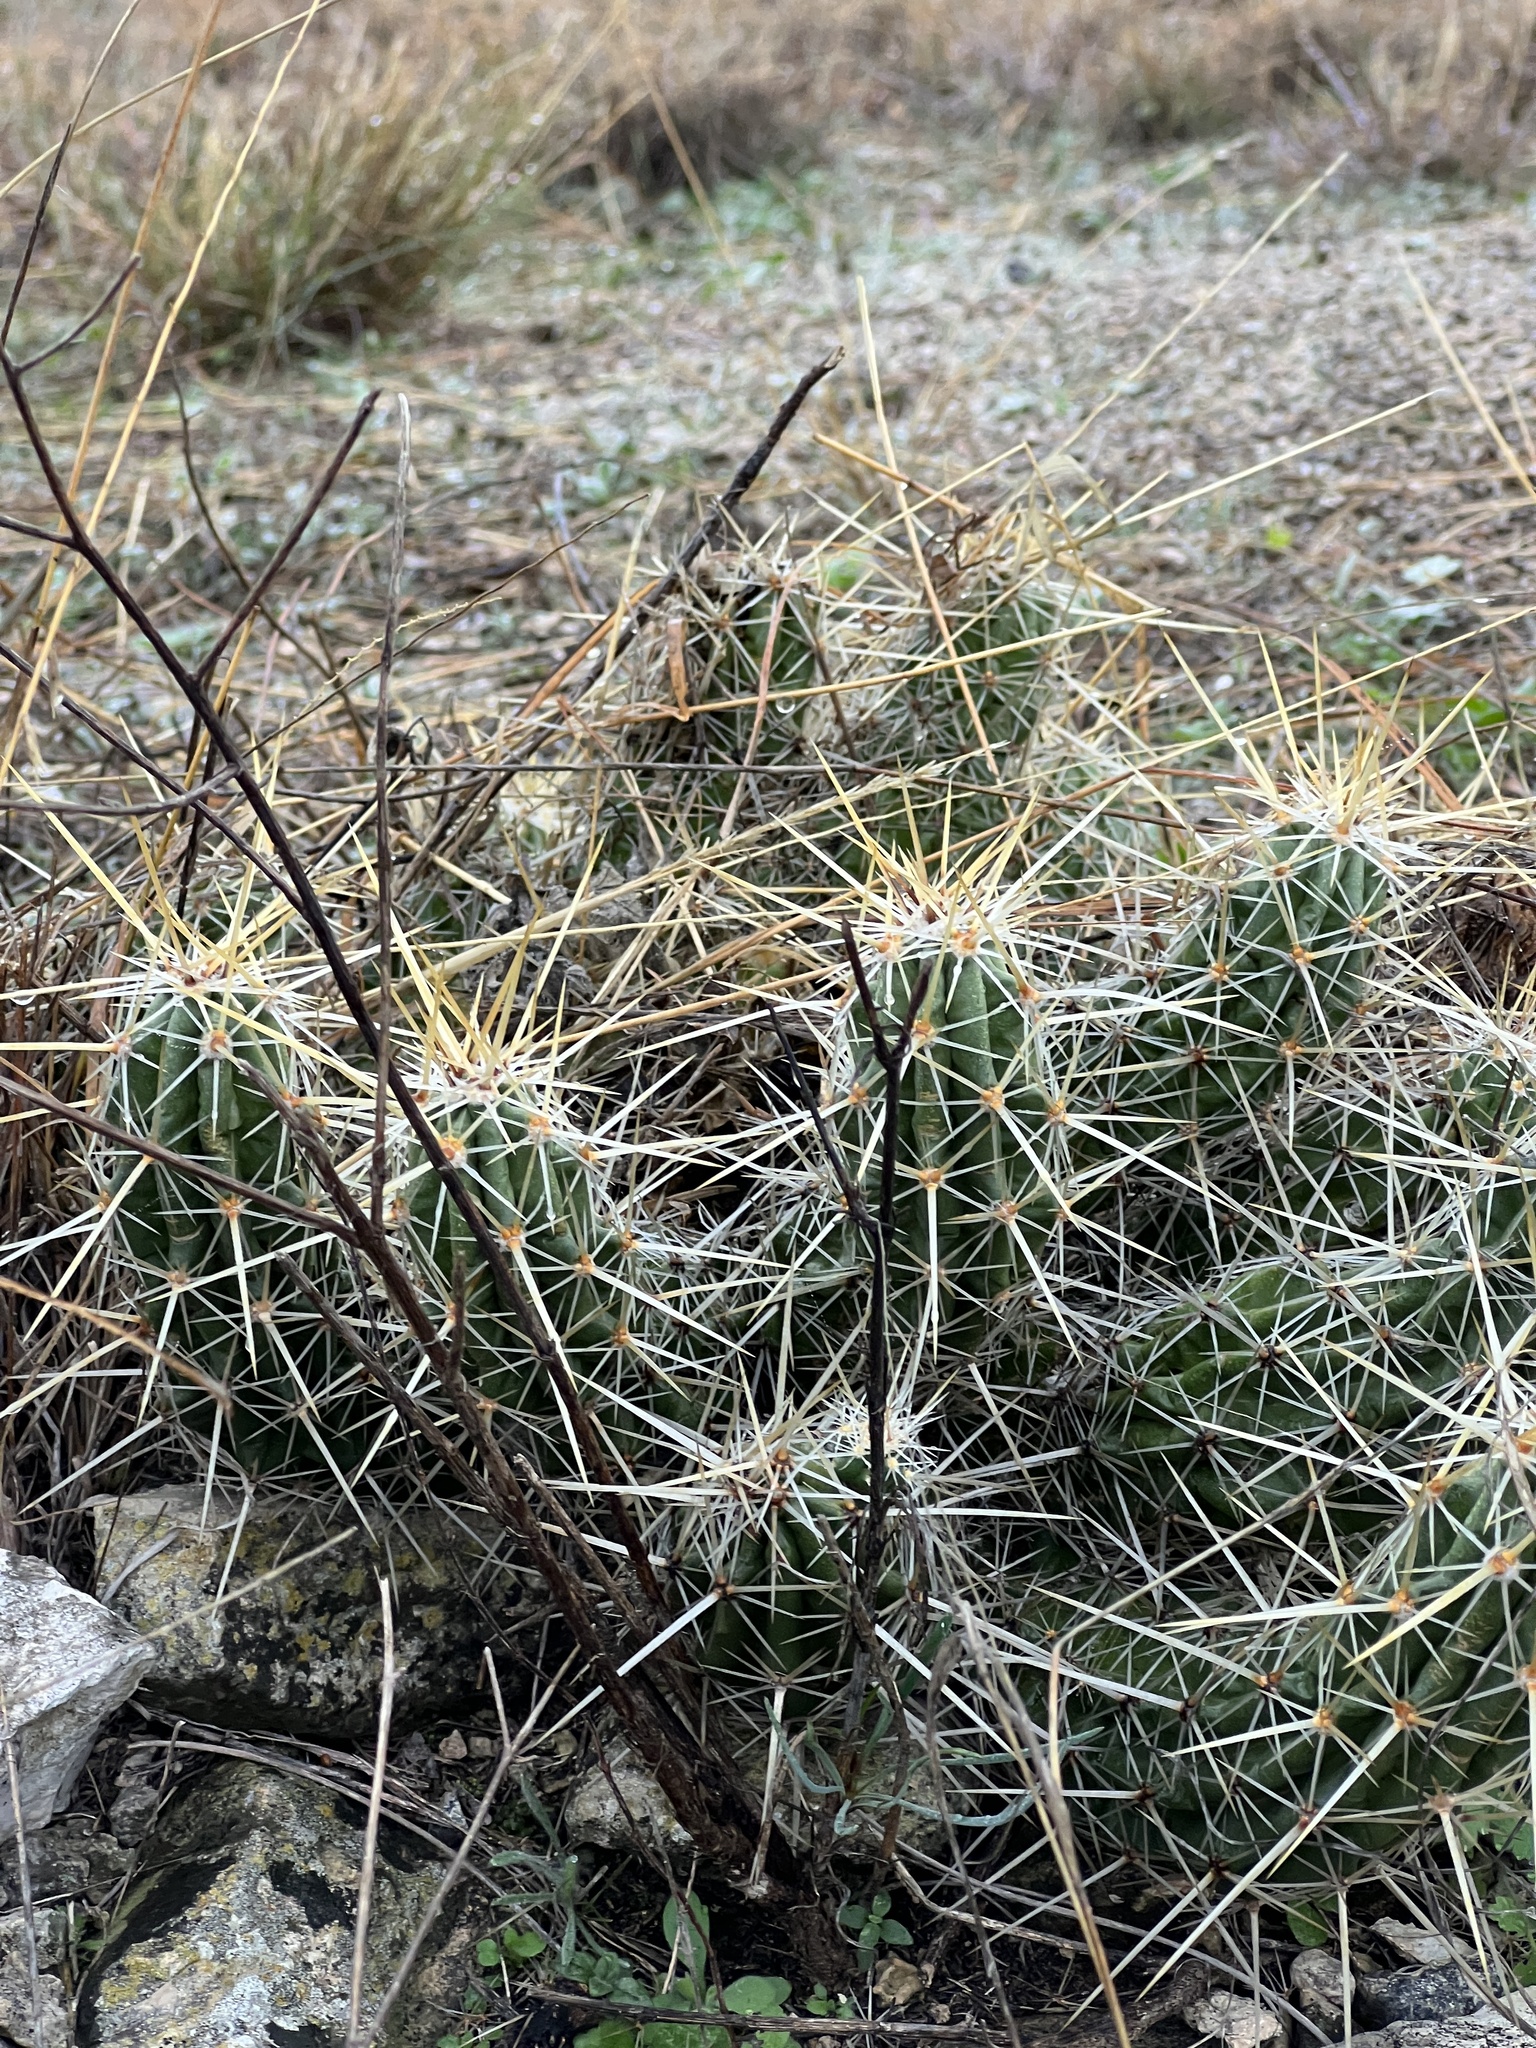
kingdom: Plantae
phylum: Tracheophyta
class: Magnoliopsida
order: Caryophyllales
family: Cactaceae
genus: Echinocereus
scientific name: Echinocereus enneacanthus
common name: Pitaya
